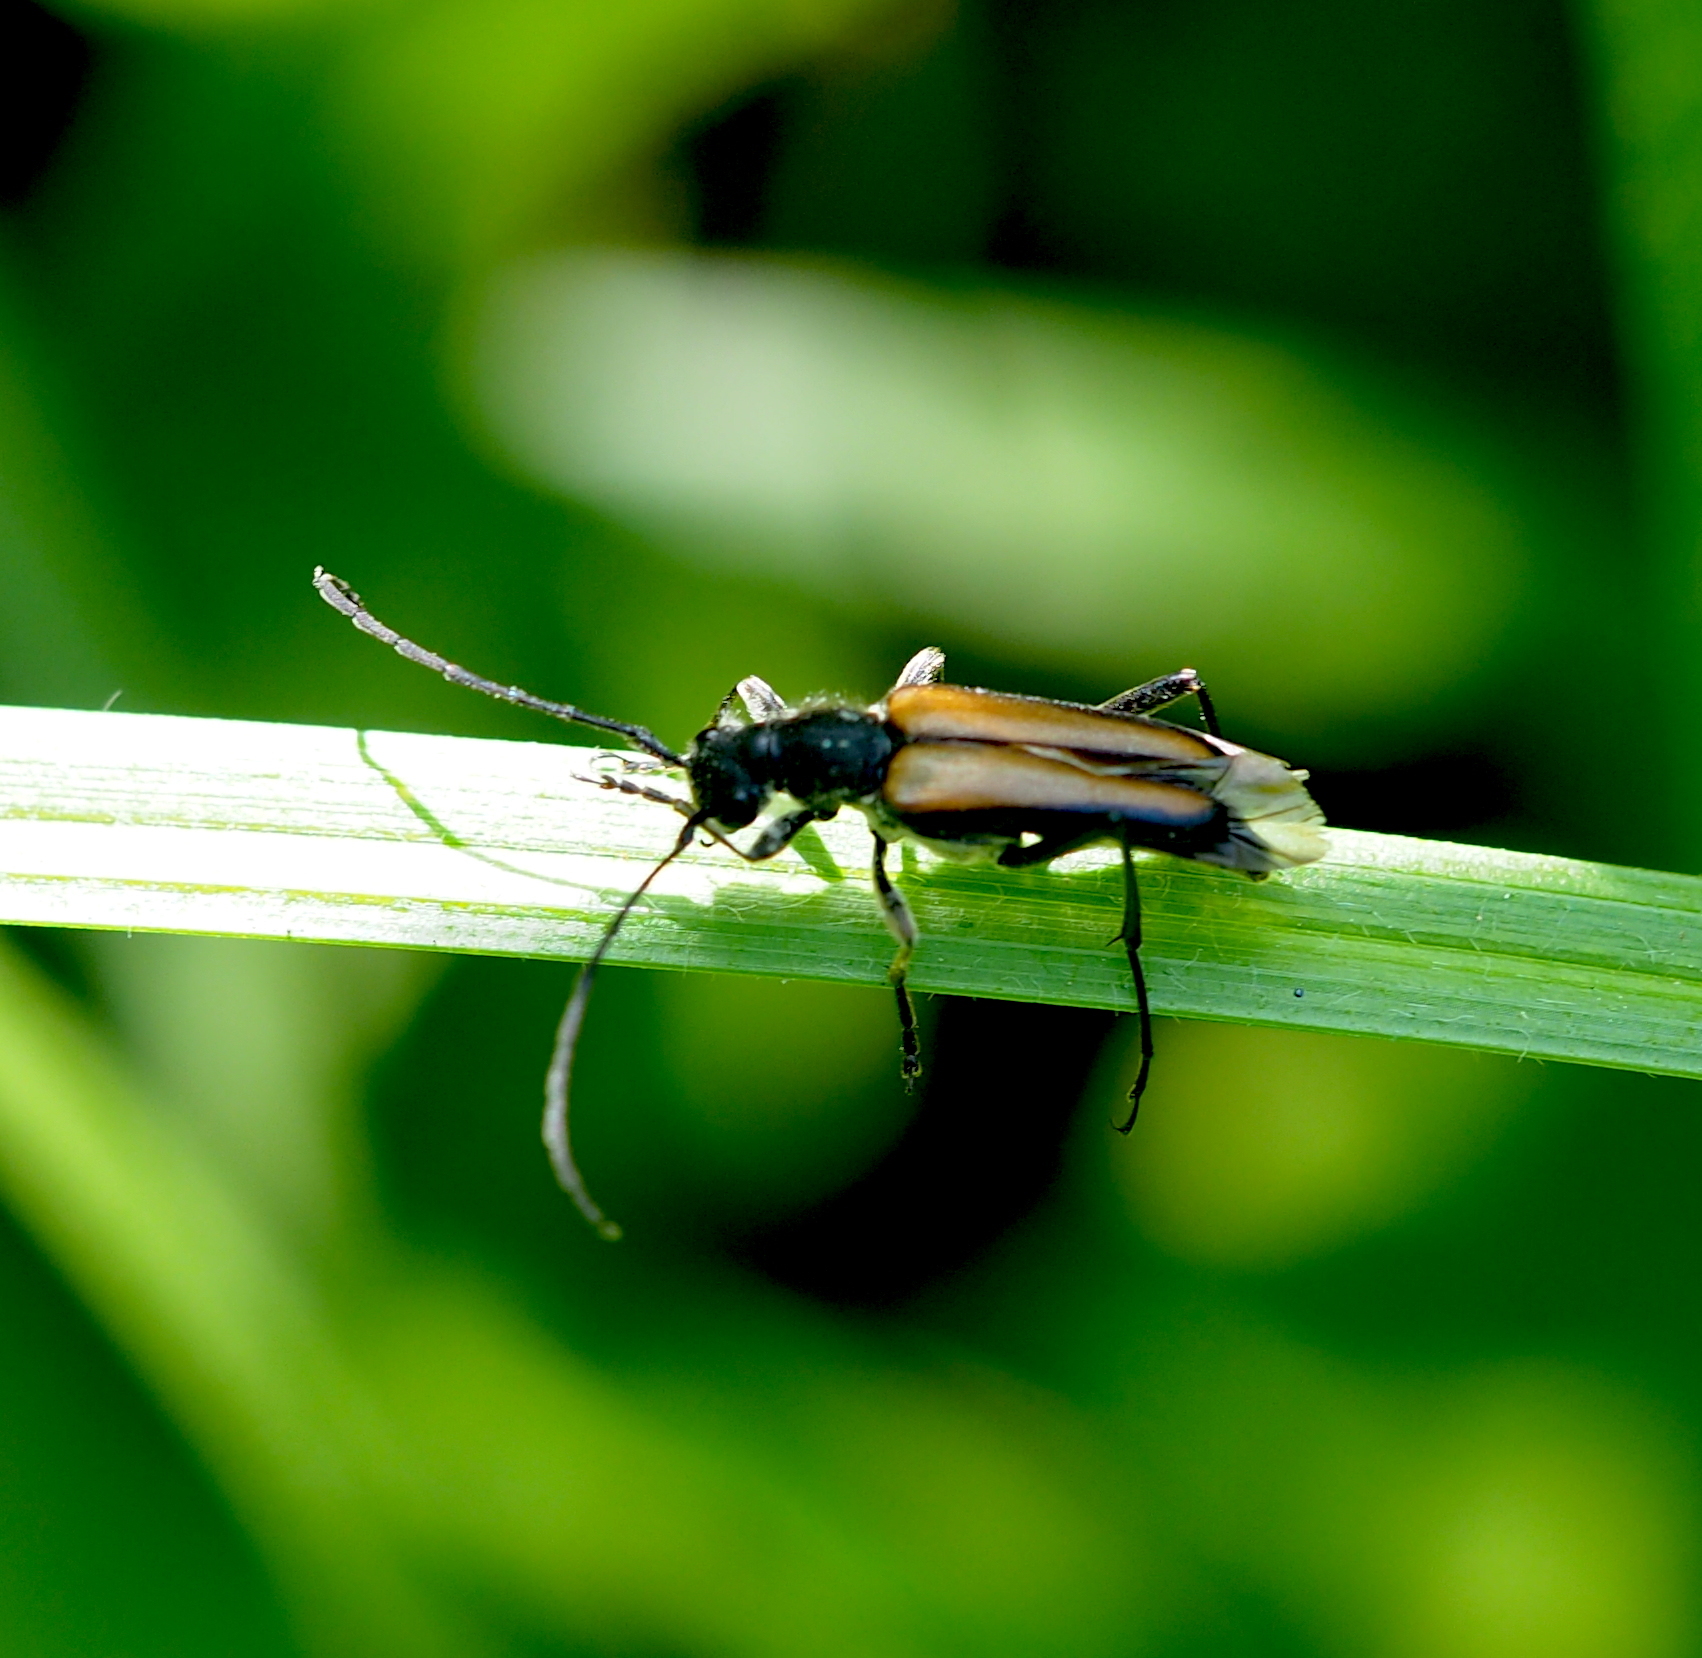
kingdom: Animalia
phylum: Arthropoda
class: Insecta
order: Coleoptera
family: Cerambycidae
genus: Anastrangalia
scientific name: Anastrangalia dubia
